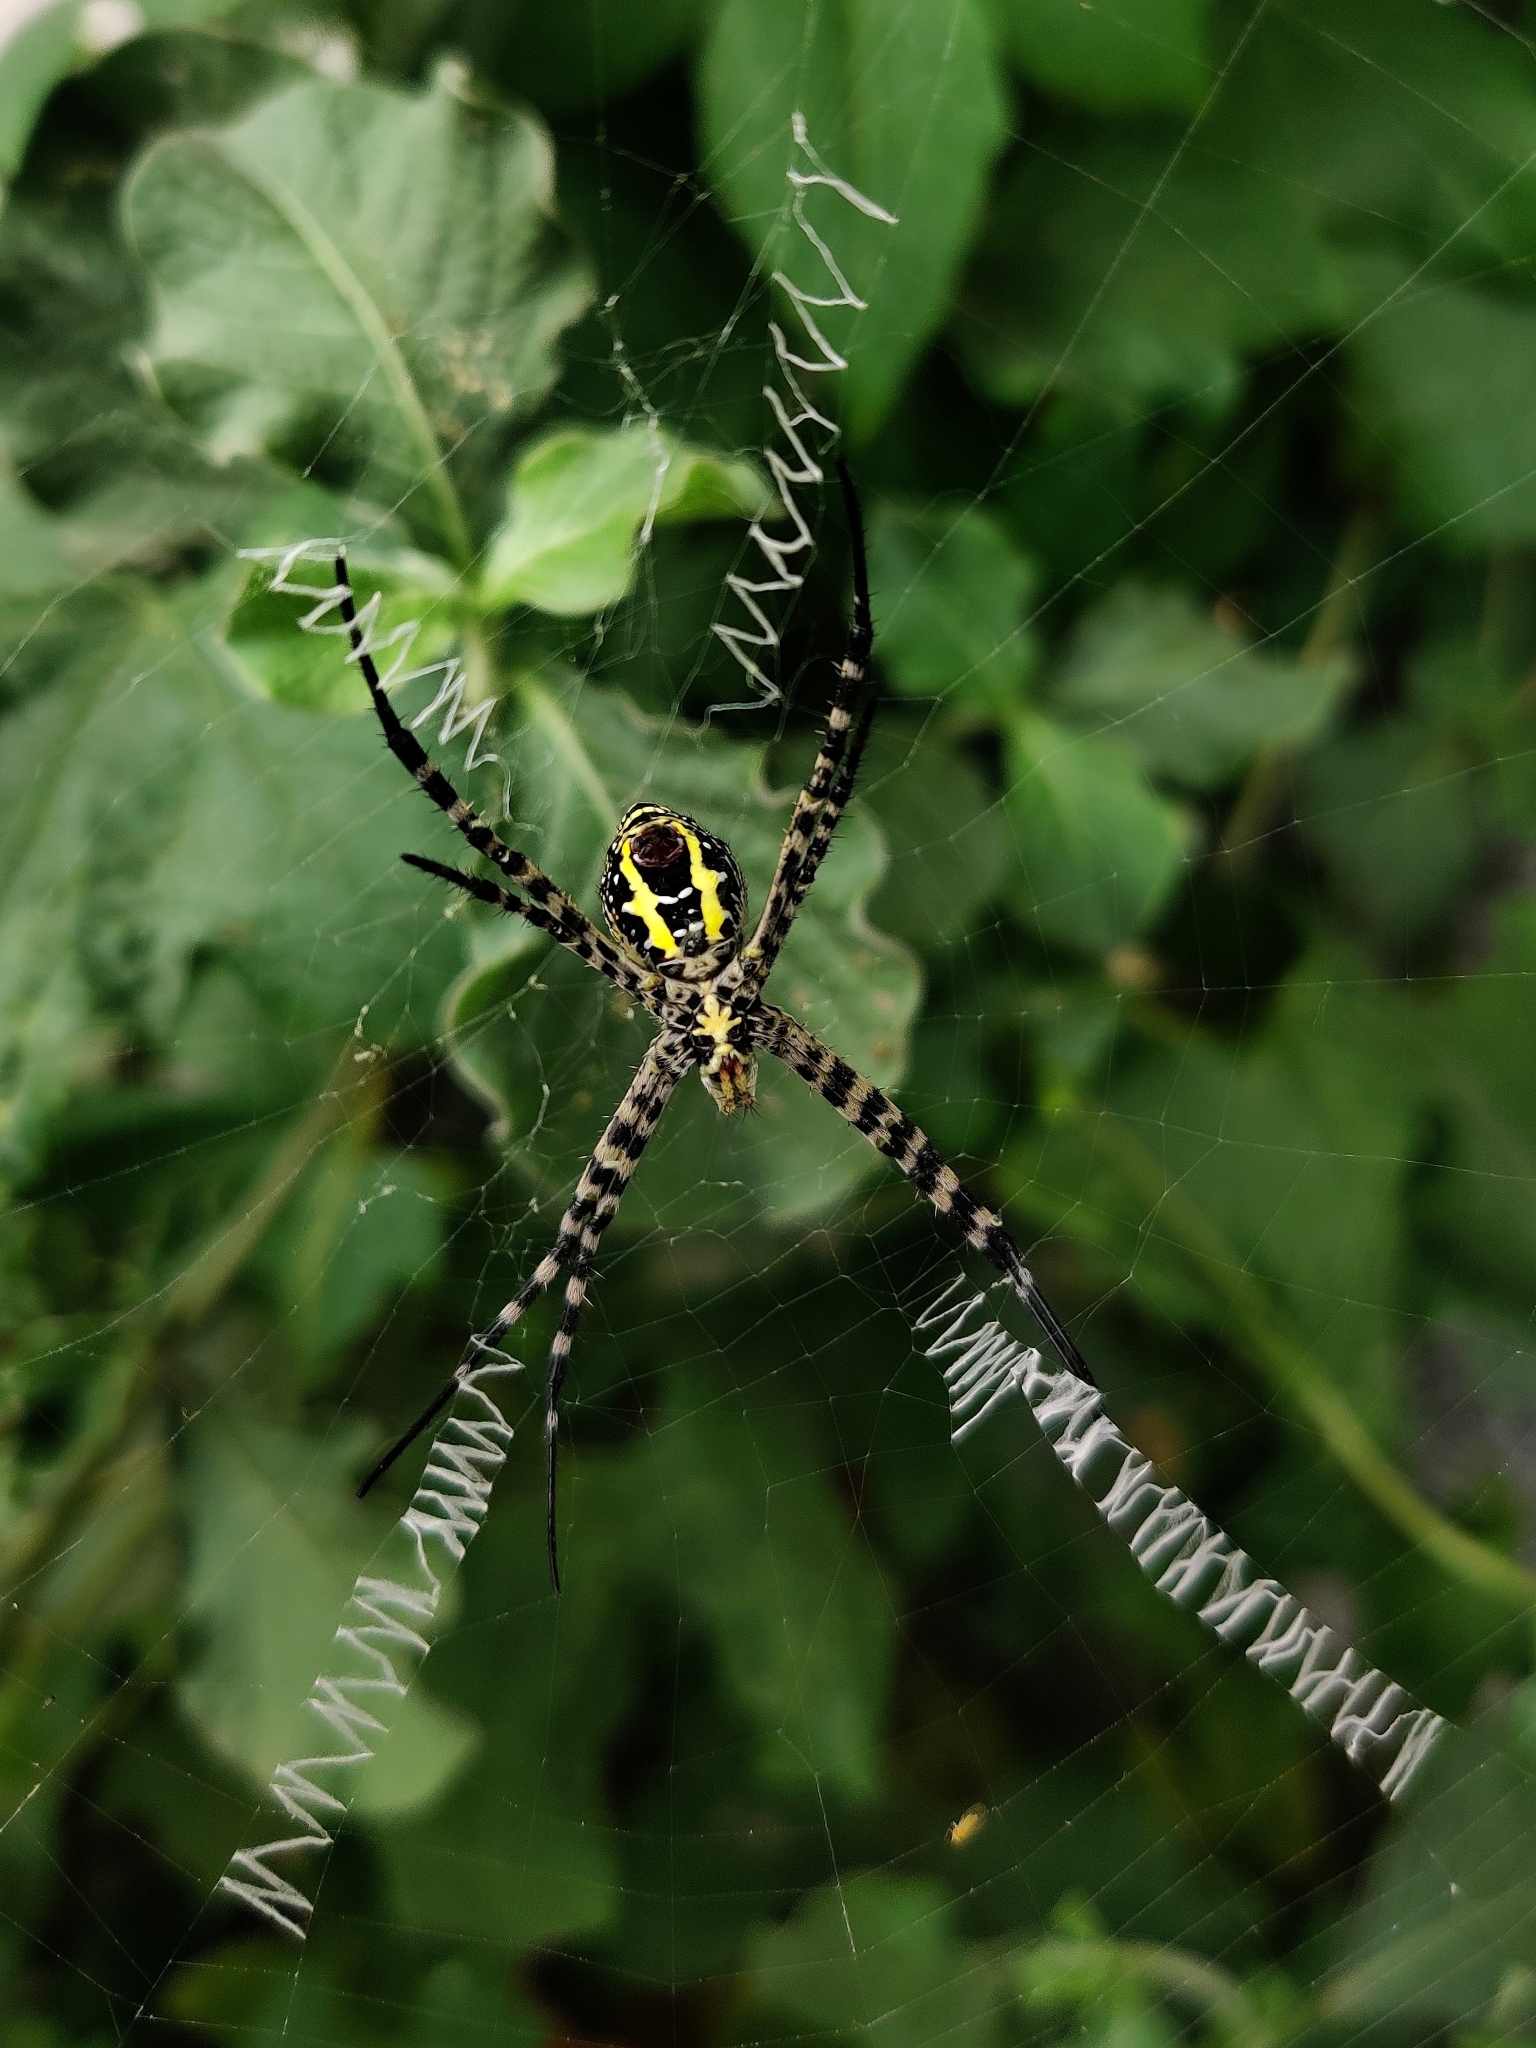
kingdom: Animalia
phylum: Arthropoda
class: Arachnida
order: Araneae
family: Araneidae
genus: Argiope
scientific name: Argiope aemula
